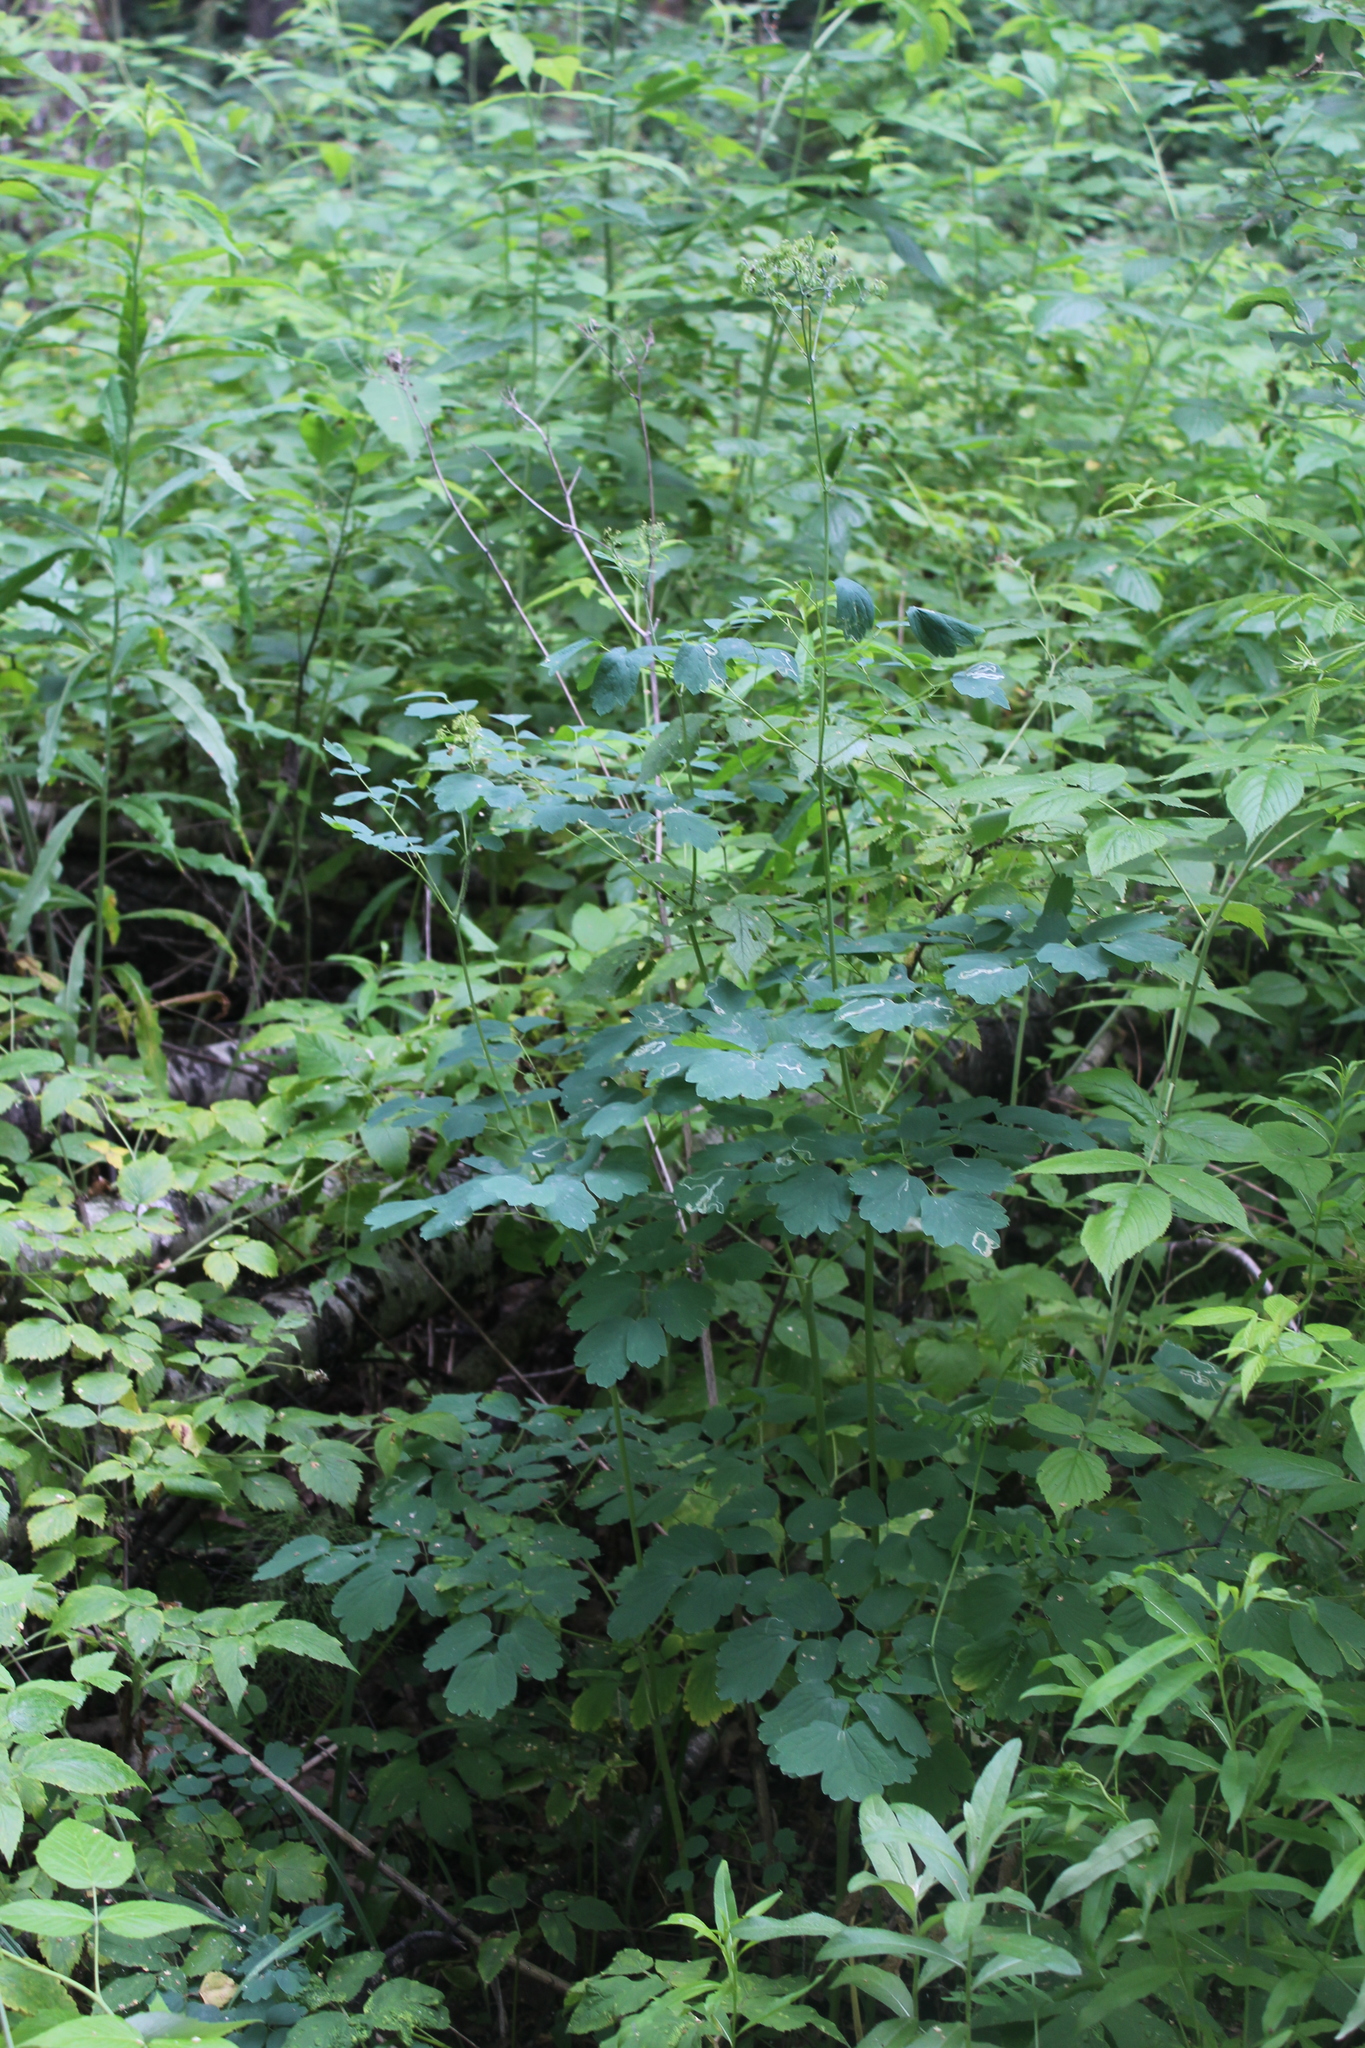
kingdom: Plantae
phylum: Tracheophyta
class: Magnoliopsida
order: Ranunculales
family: Ranunculaceae
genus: Thalictrum
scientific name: Thalictrum aquilegiifolium
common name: French meadow-rue
